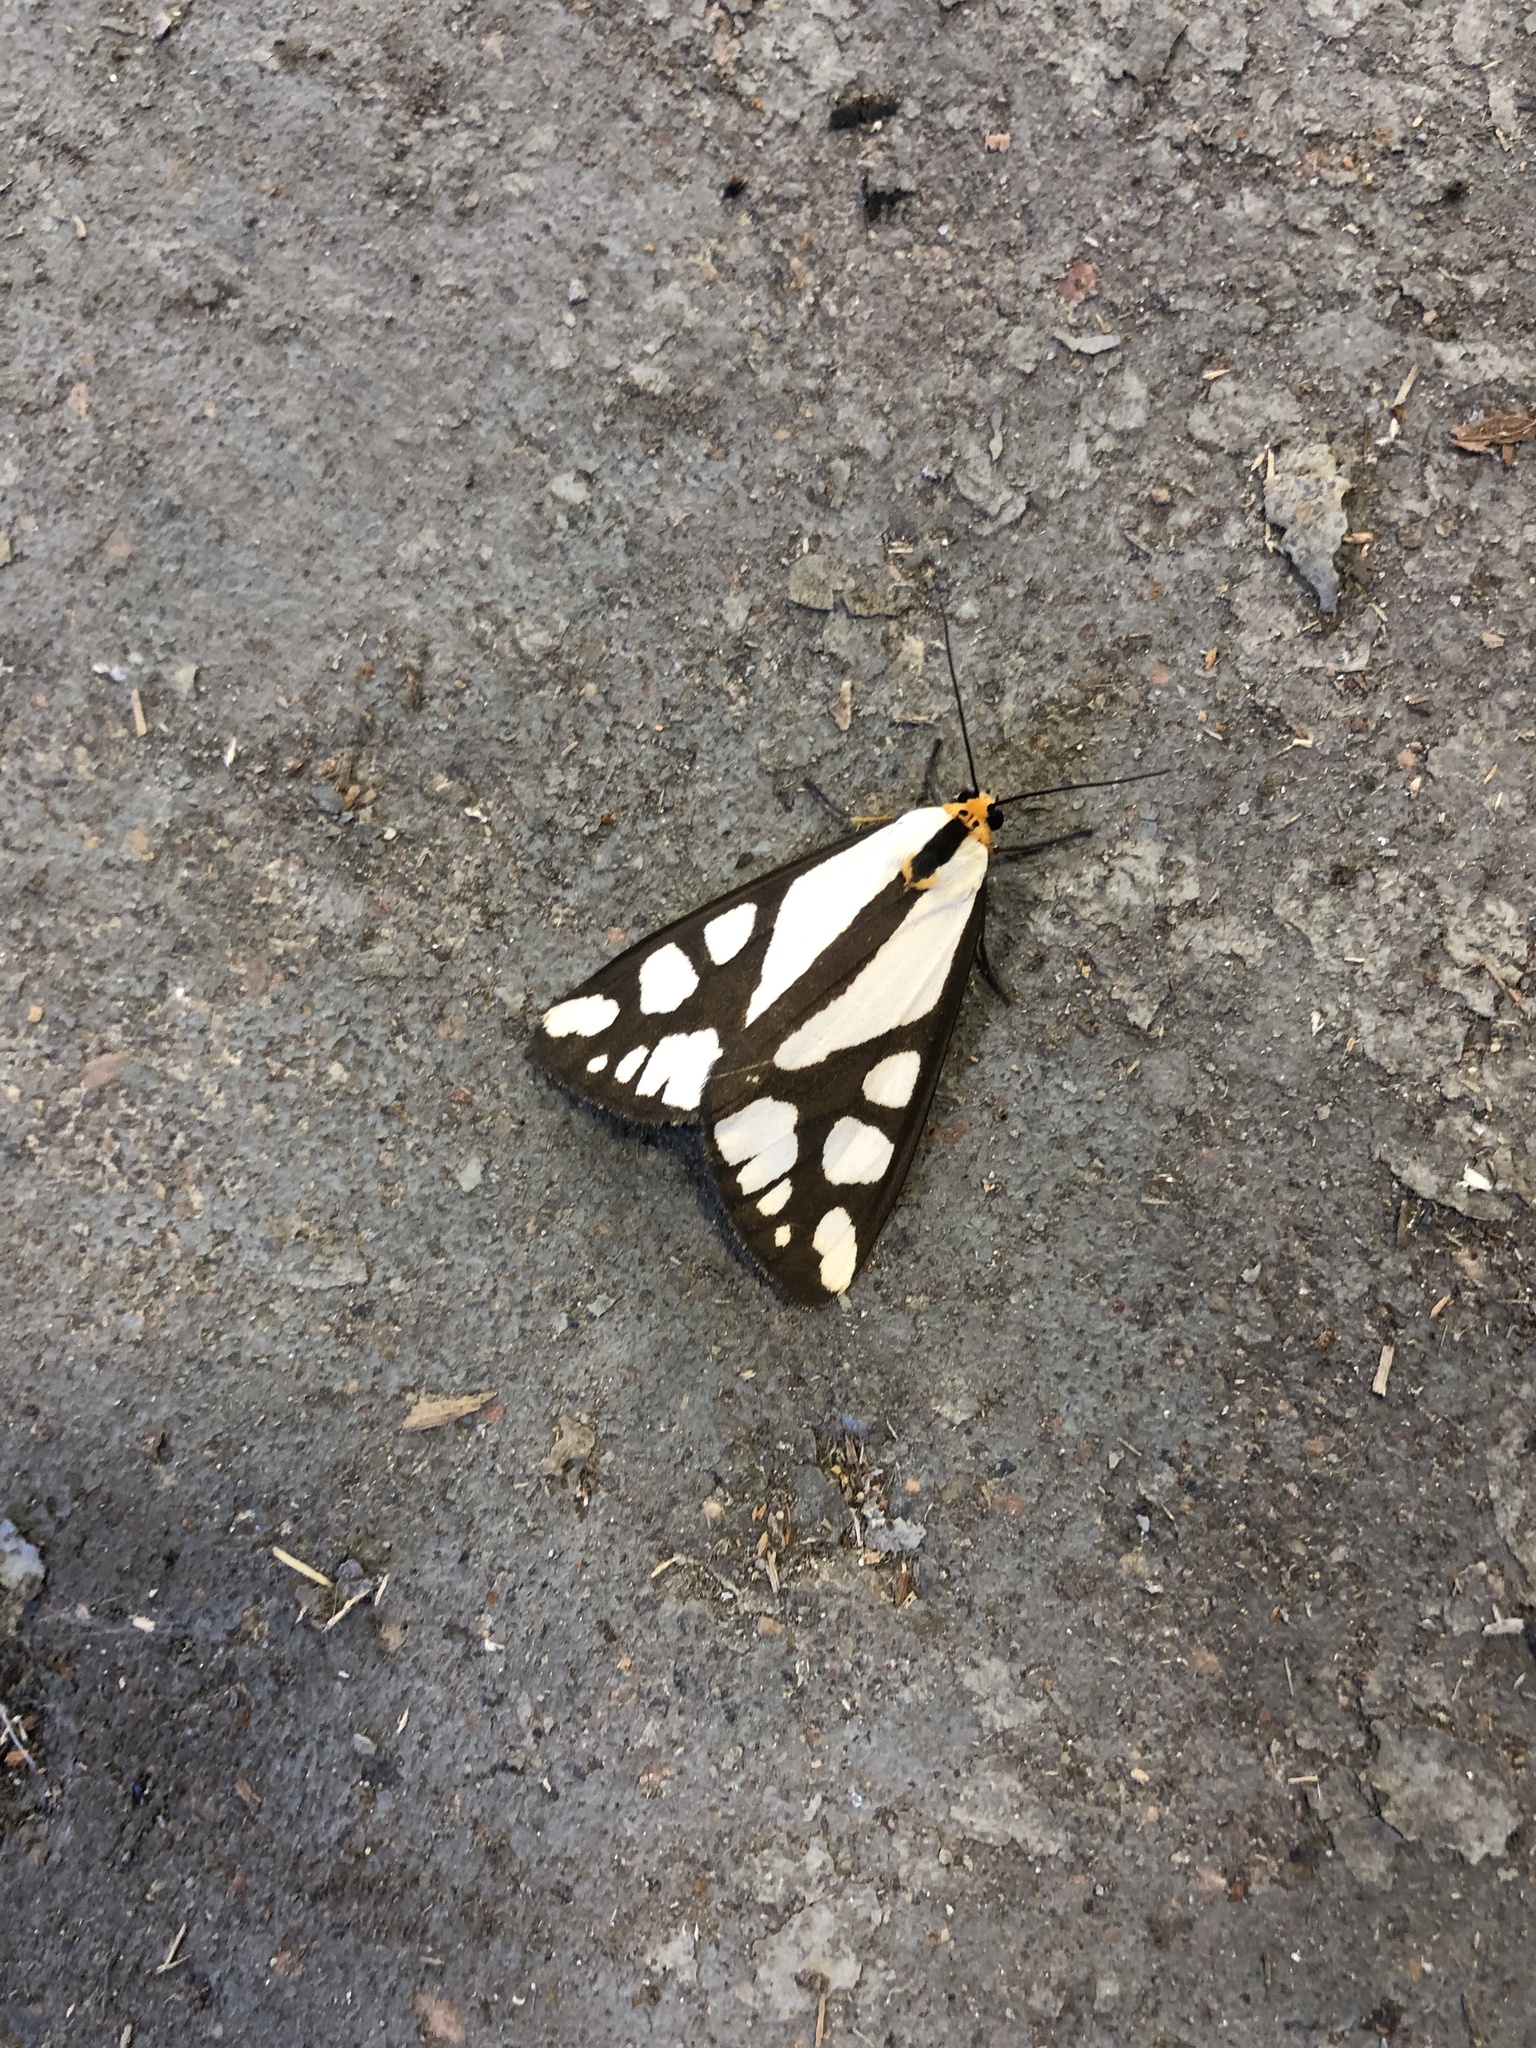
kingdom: Animalia
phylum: Arthropoda
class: Insecta
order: Lepidoptera
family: Erebidae
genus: Haploa
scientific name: Haploa reversa
